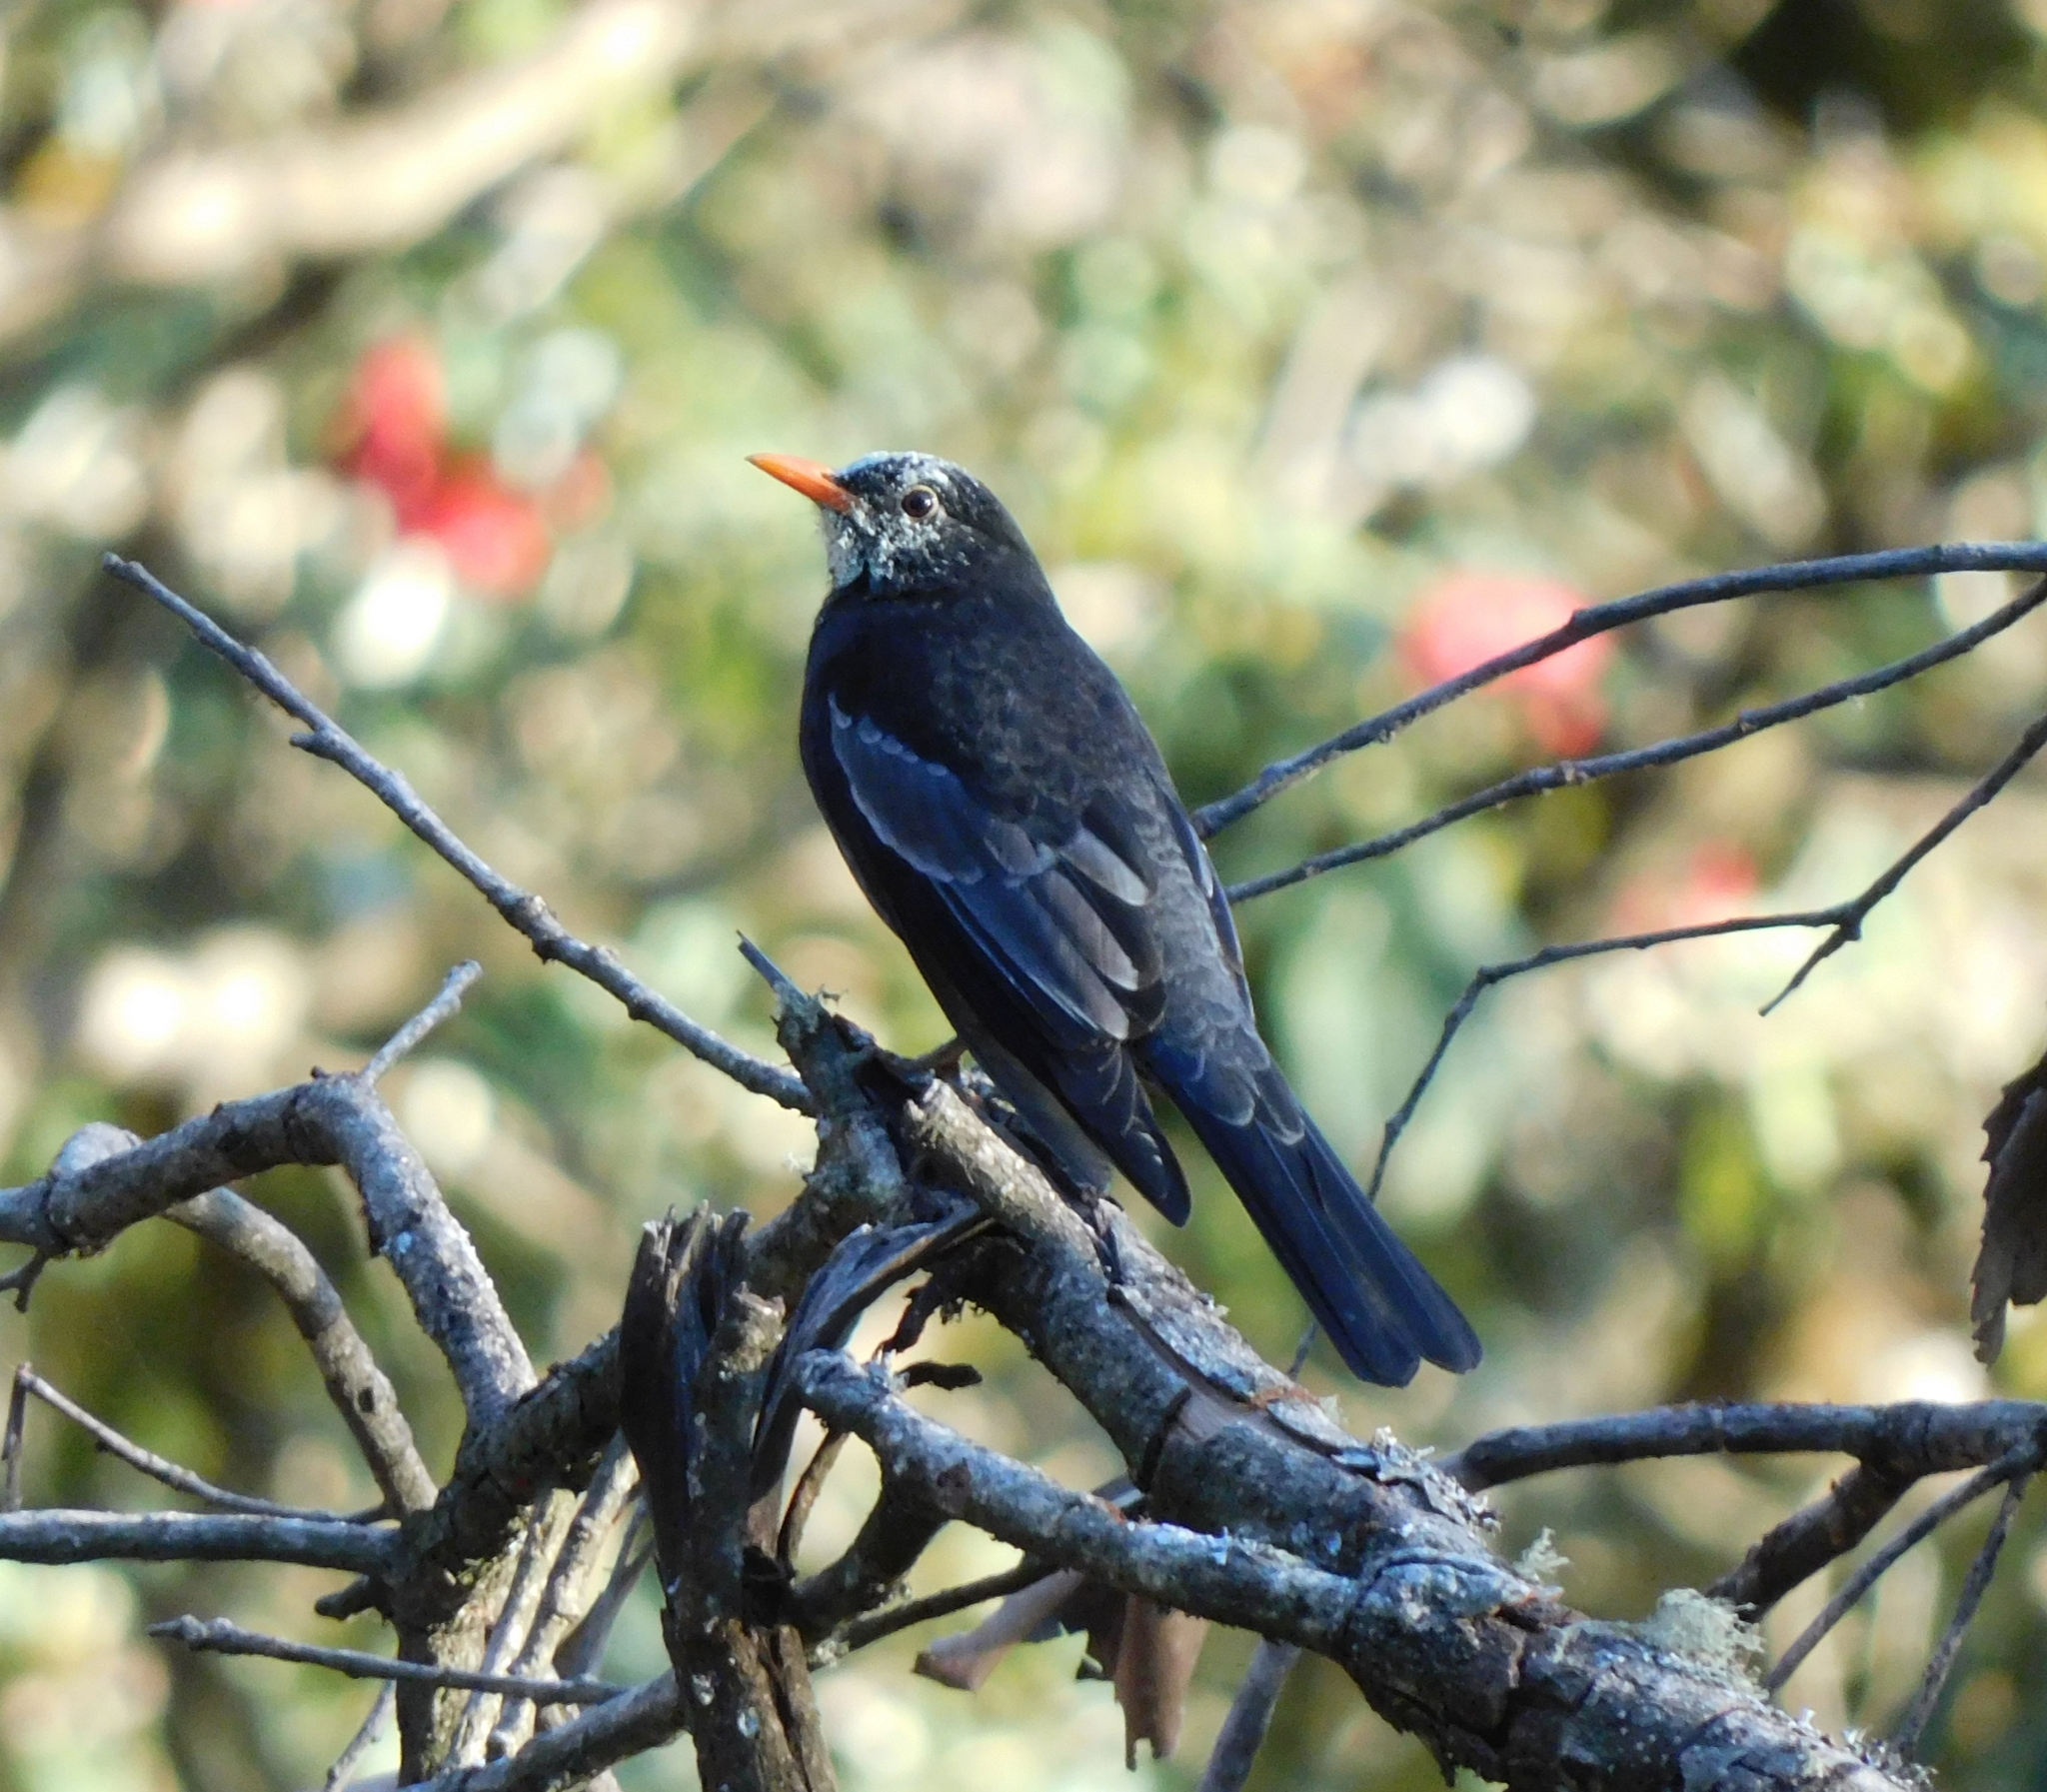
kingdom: Animalia
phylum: Chordata
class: Aves
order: Passeriformes
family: Turdidae
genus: Turdus
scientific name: Turdus boulboul
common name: Grey-winged blackbird
